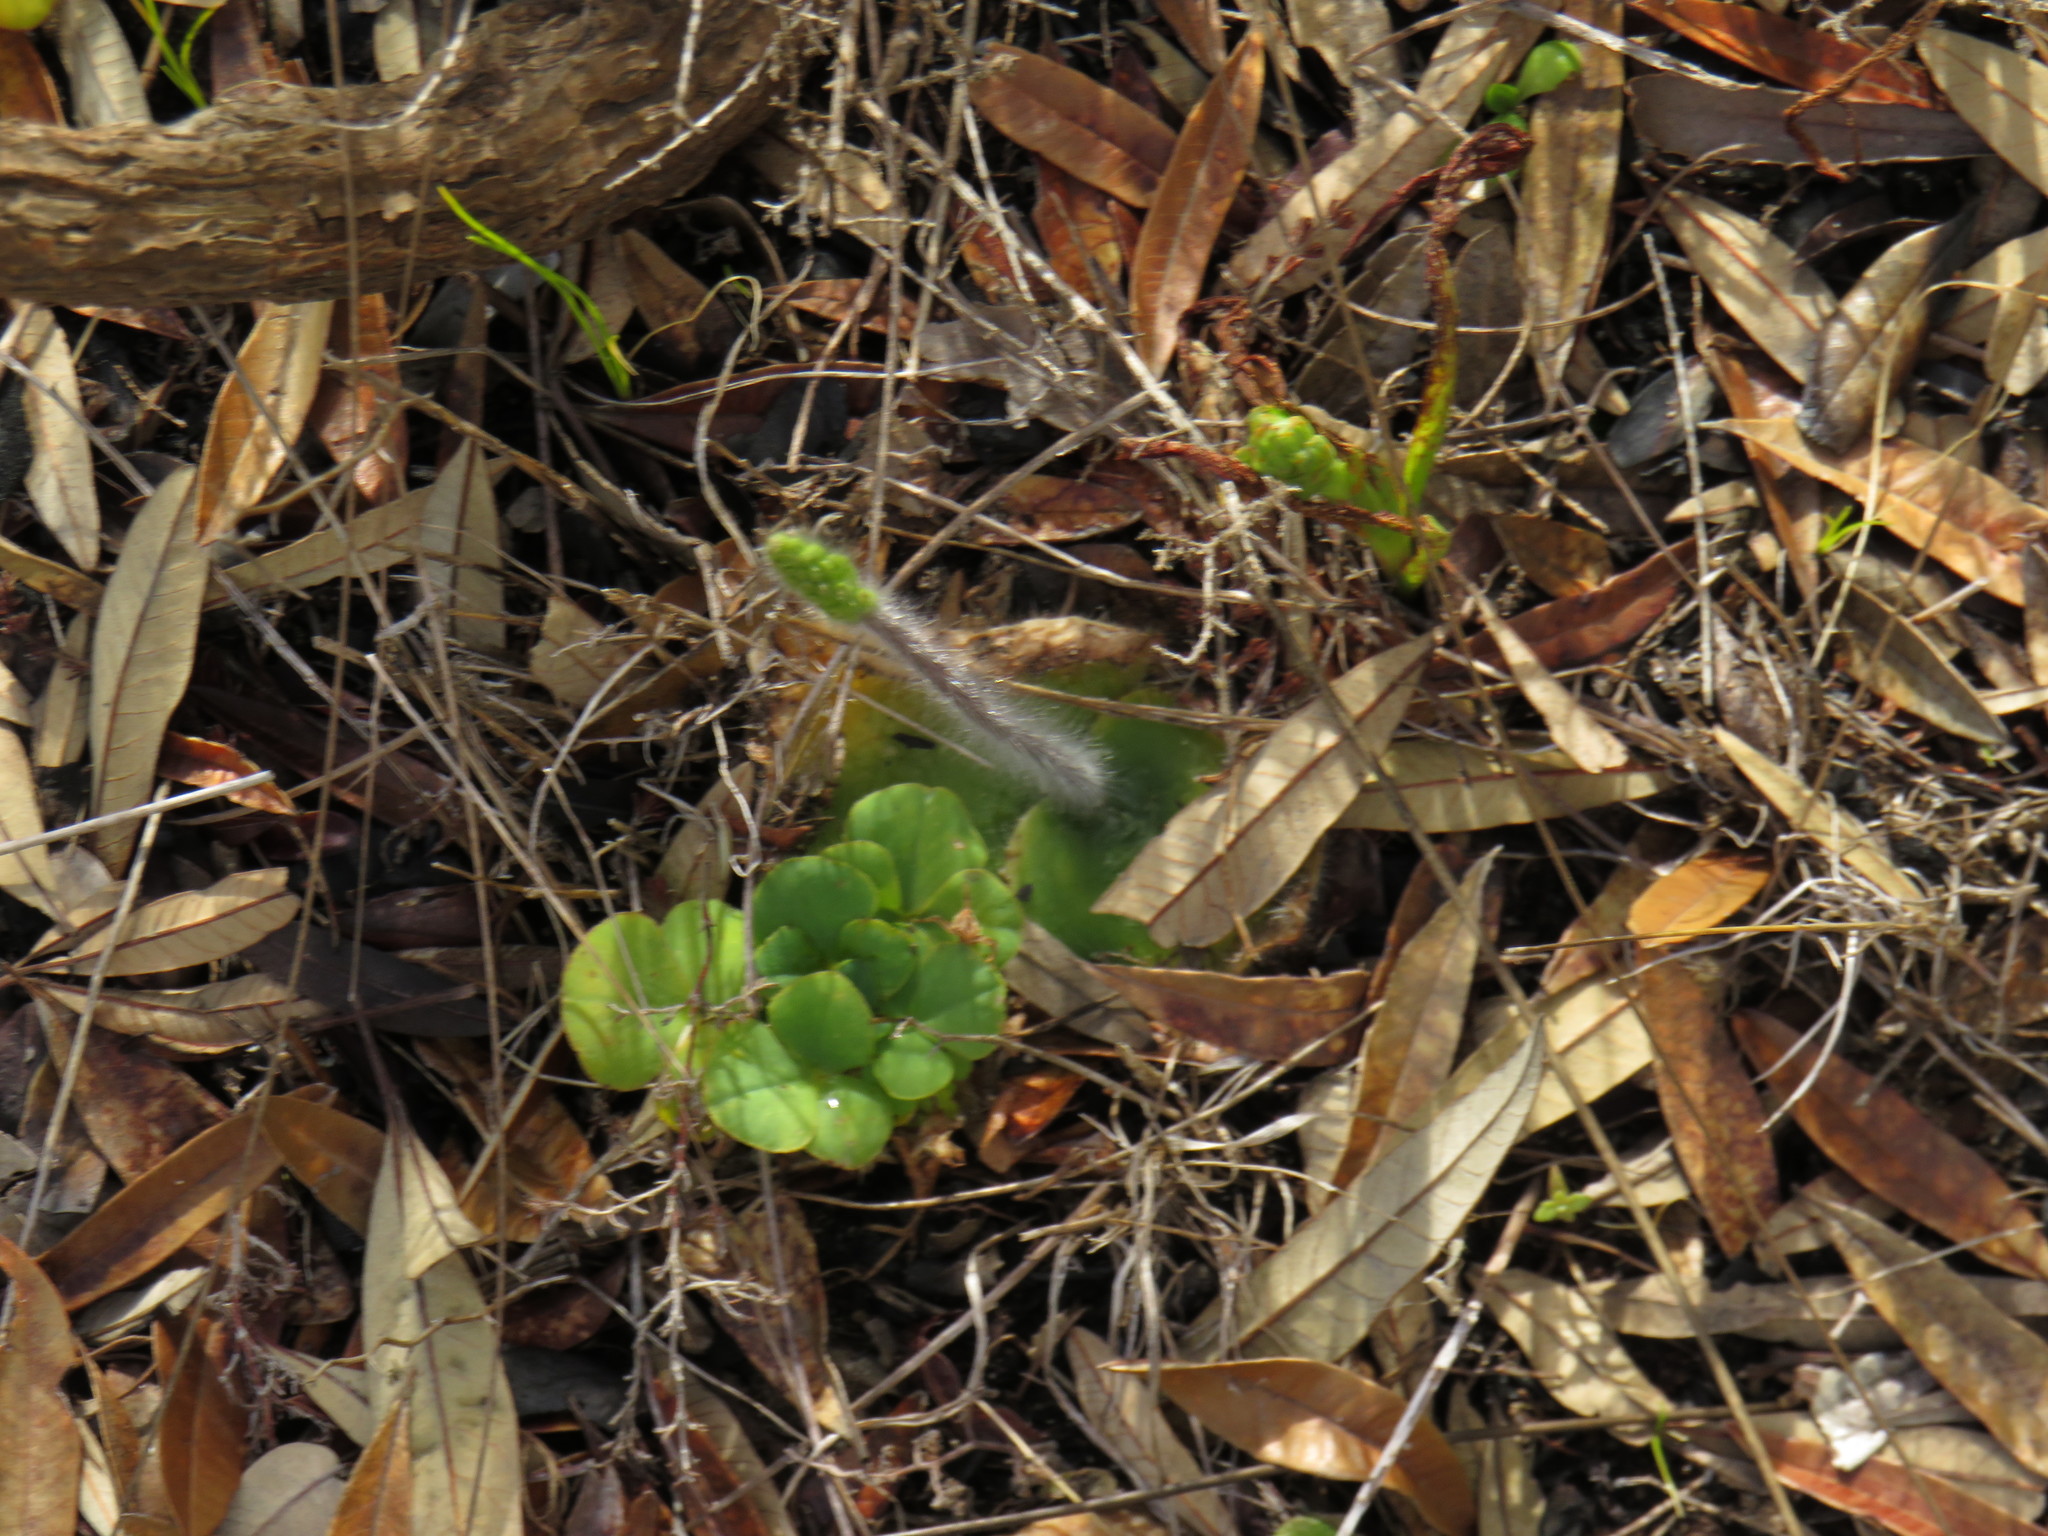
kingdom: Plantae
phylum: Tracheophyta
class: Liliopsida
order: Asparagales
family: Orchidaceae
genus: Holothrix
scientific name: Holothrix villosa
